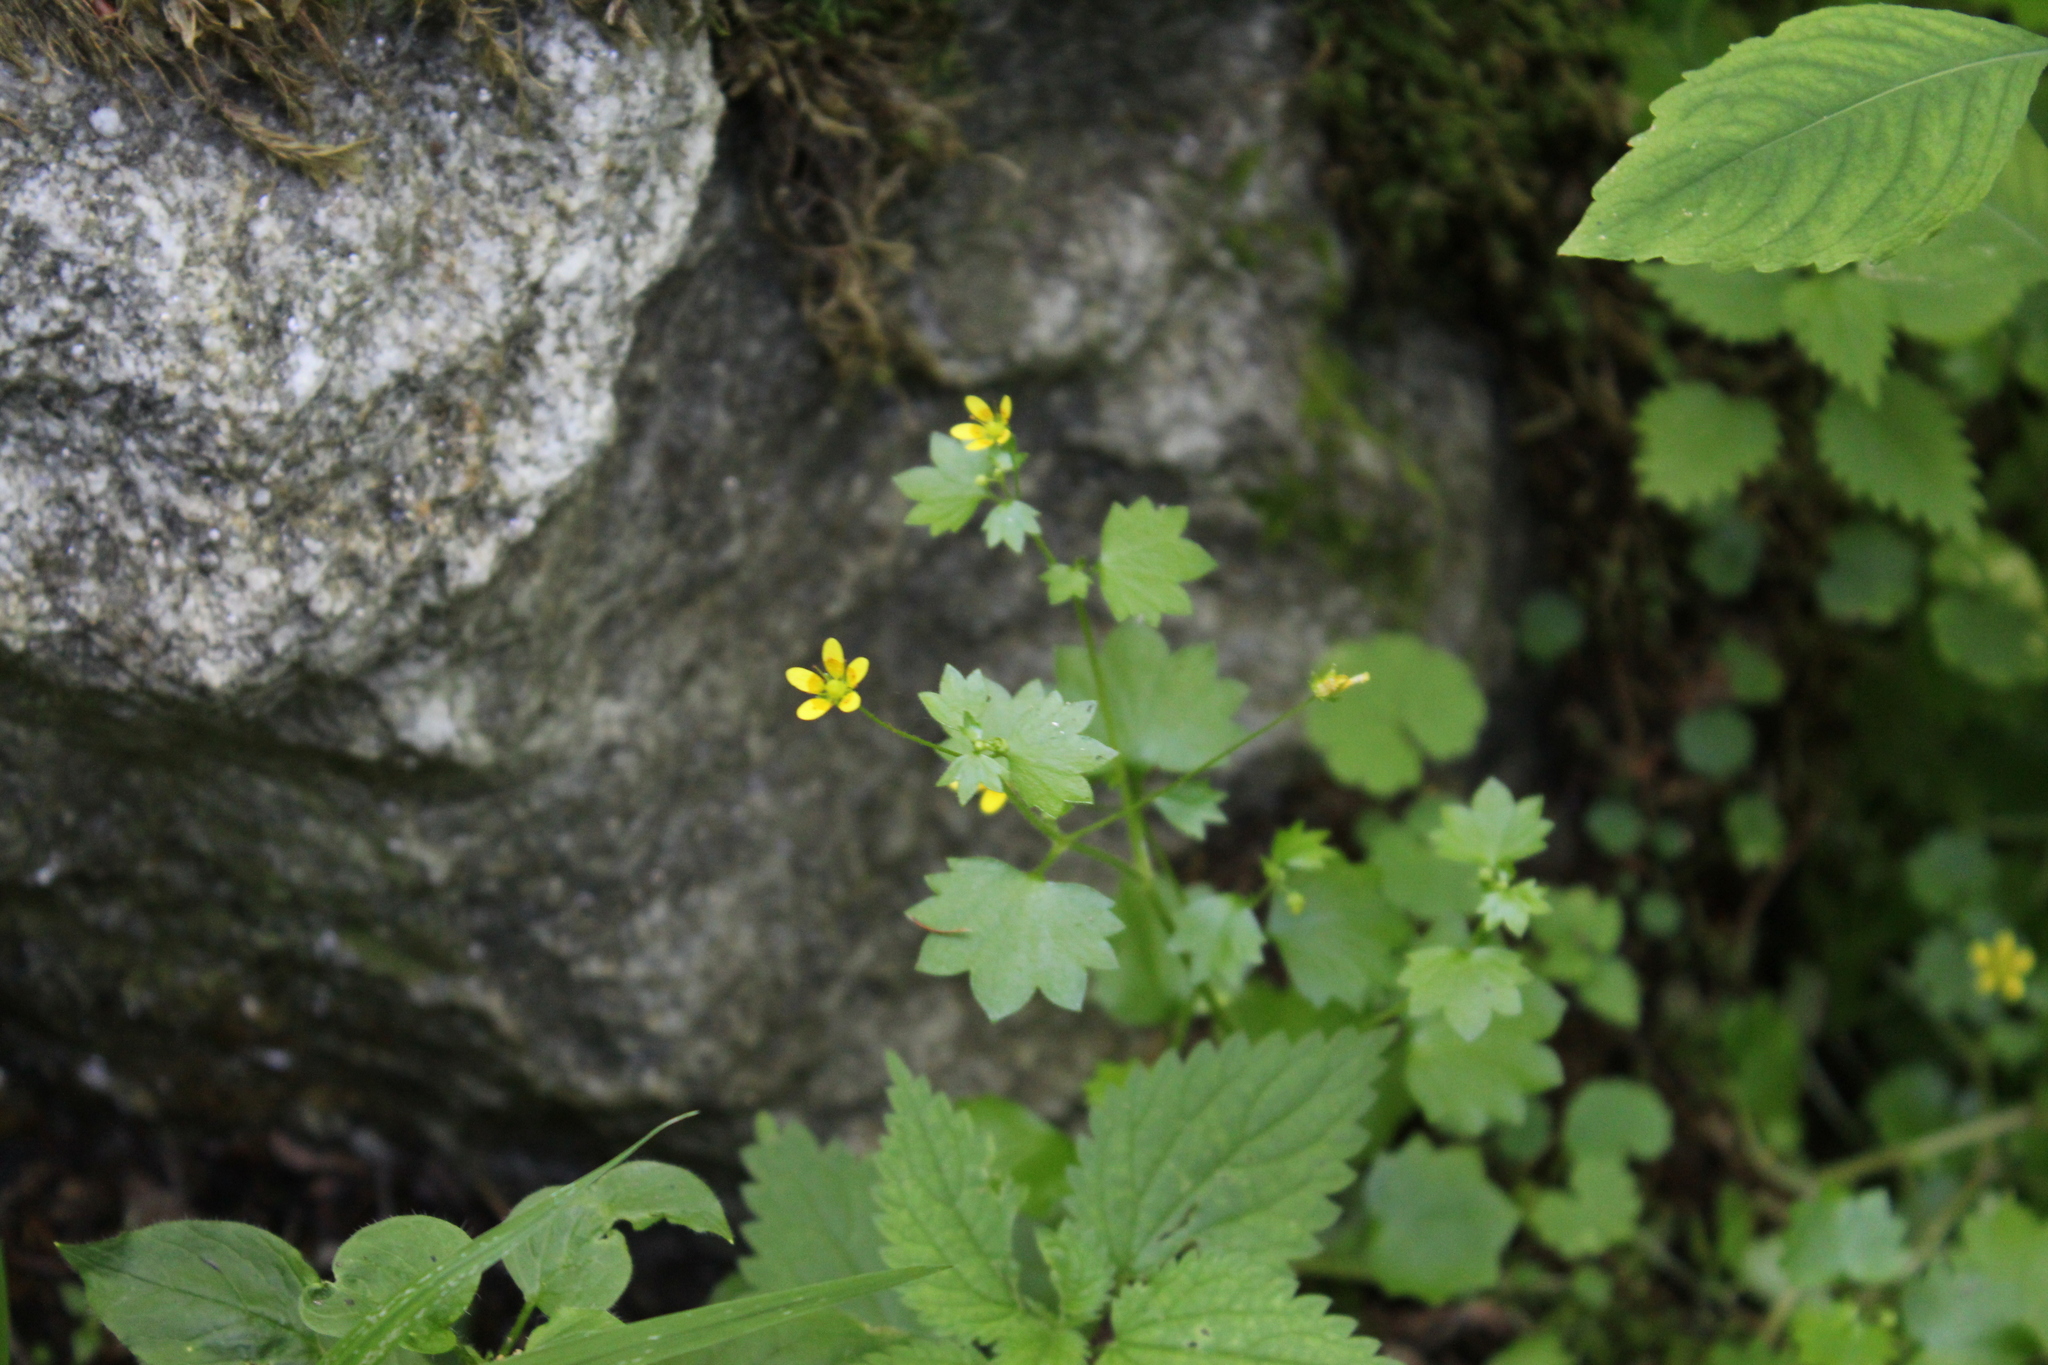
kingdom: Plantae
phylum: Tracheophyta
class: Magnoliopsida
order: Saxifragales
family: Saxifragaceae
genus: Saxifraga
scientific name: Saxifraga cymbalaria
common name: Celandine saxifrage
